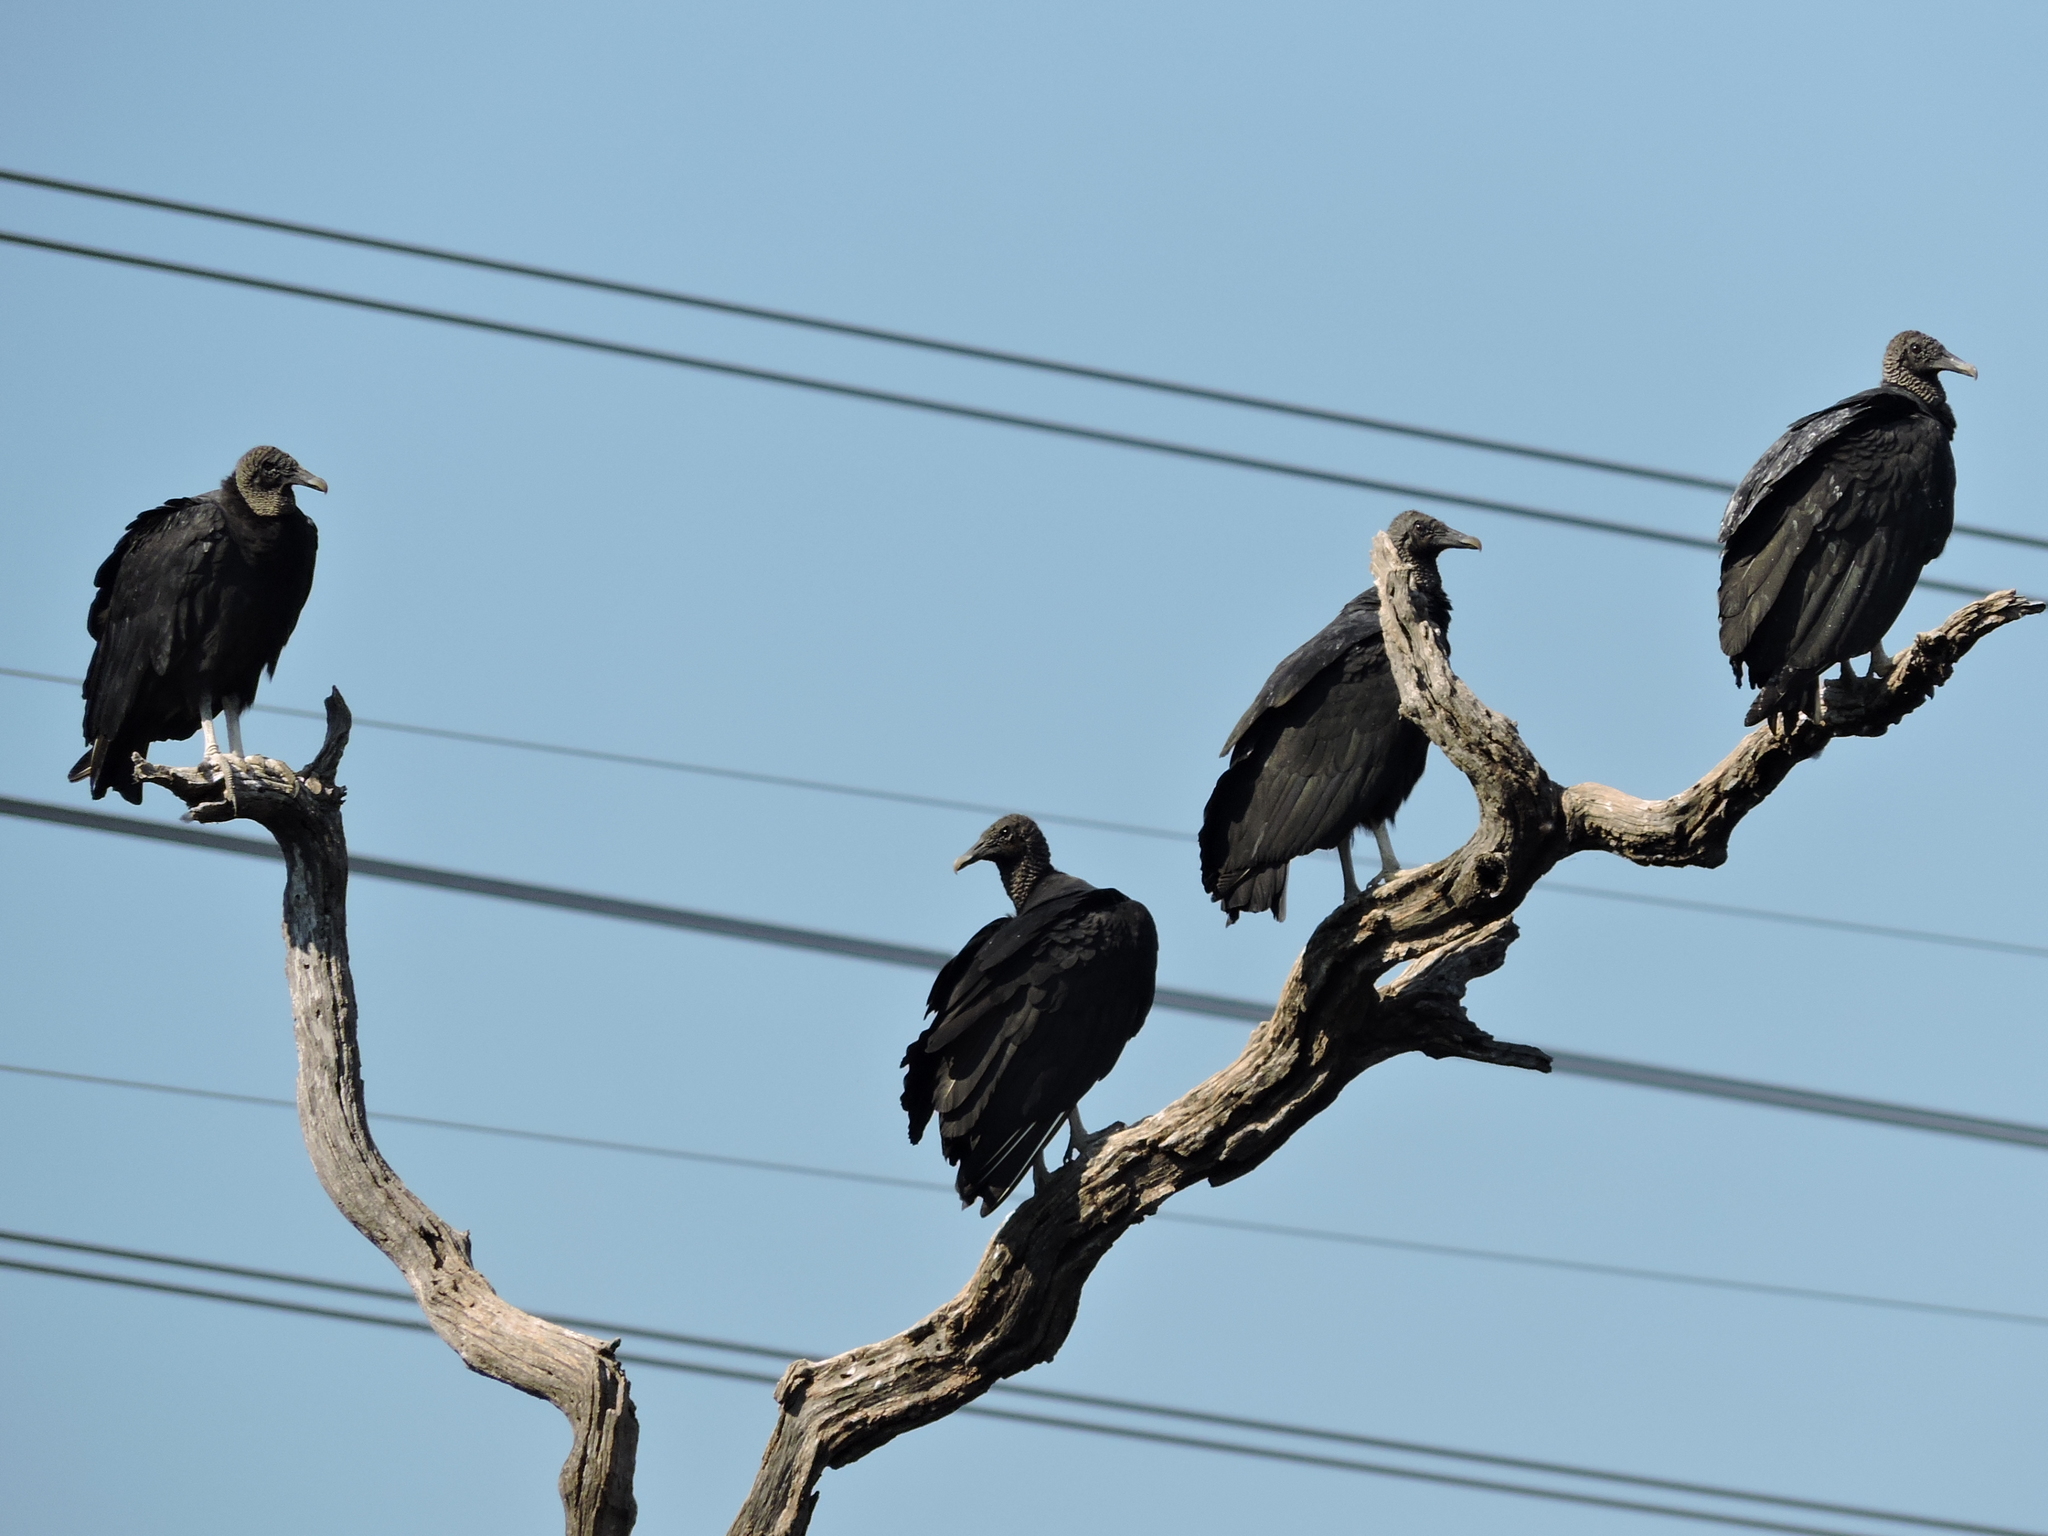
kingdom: Animalia
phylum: Chordata
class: Aves
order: Accipitriformes
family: Cathartidae
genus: Coragyps
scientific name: Coragyps atratus
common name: Black vulture
